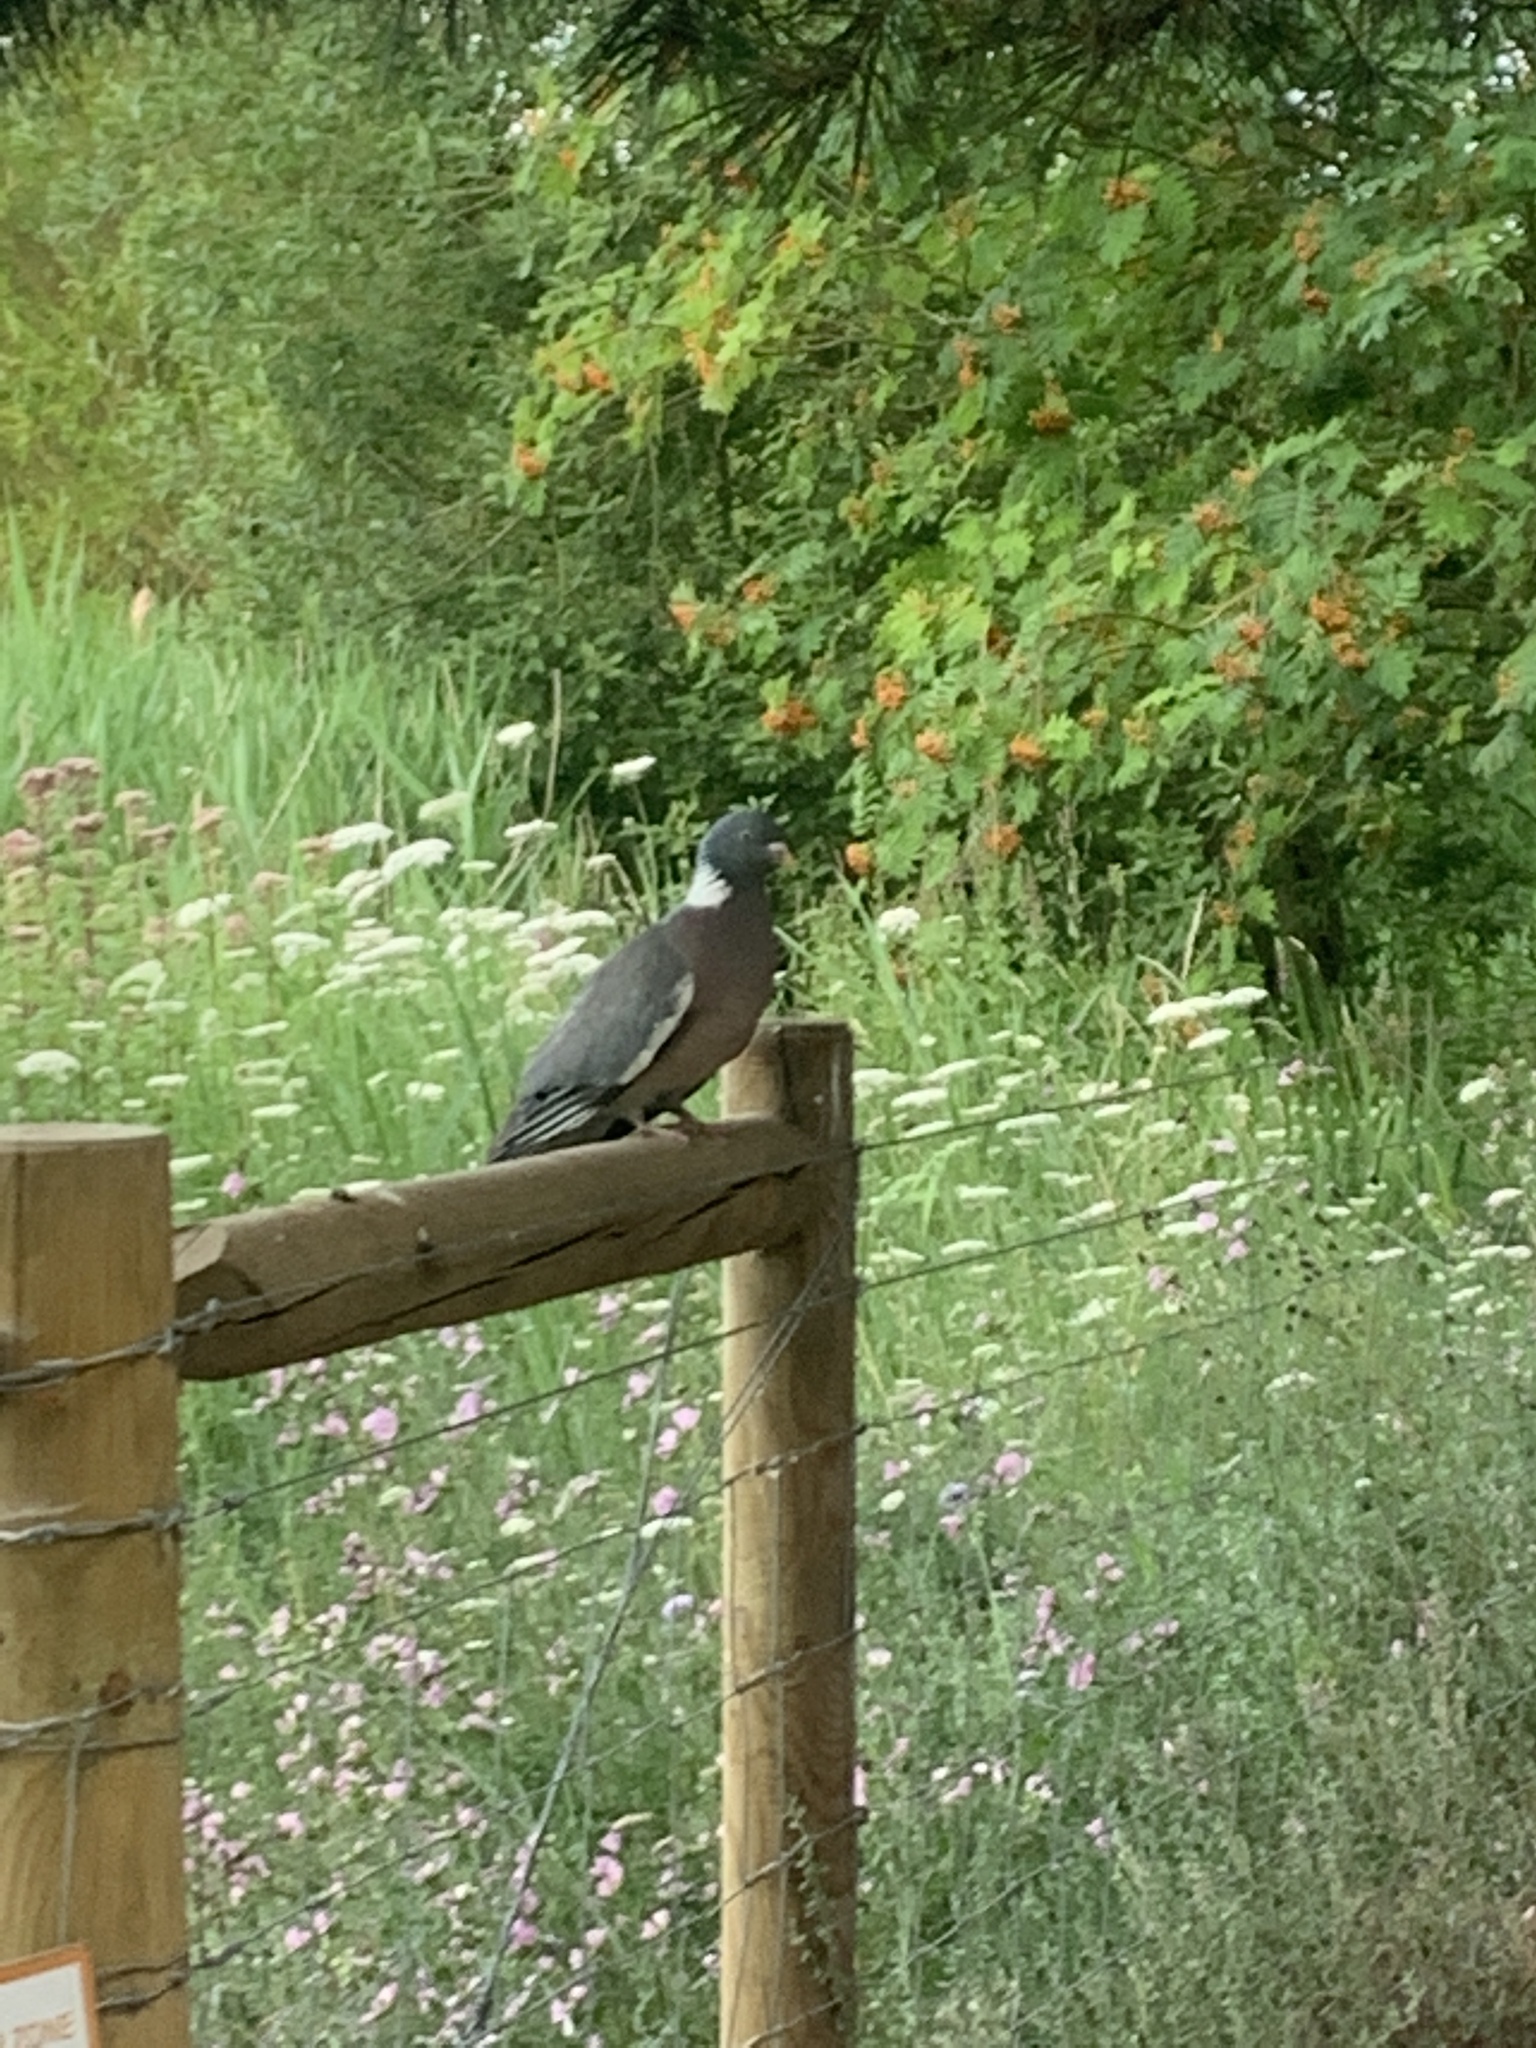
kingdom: Animalia
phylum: Chordata
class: Aves
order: Columbiformes
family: Columbidae
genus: Columba
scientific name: Columba palumbus
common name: Common wood pigeon
